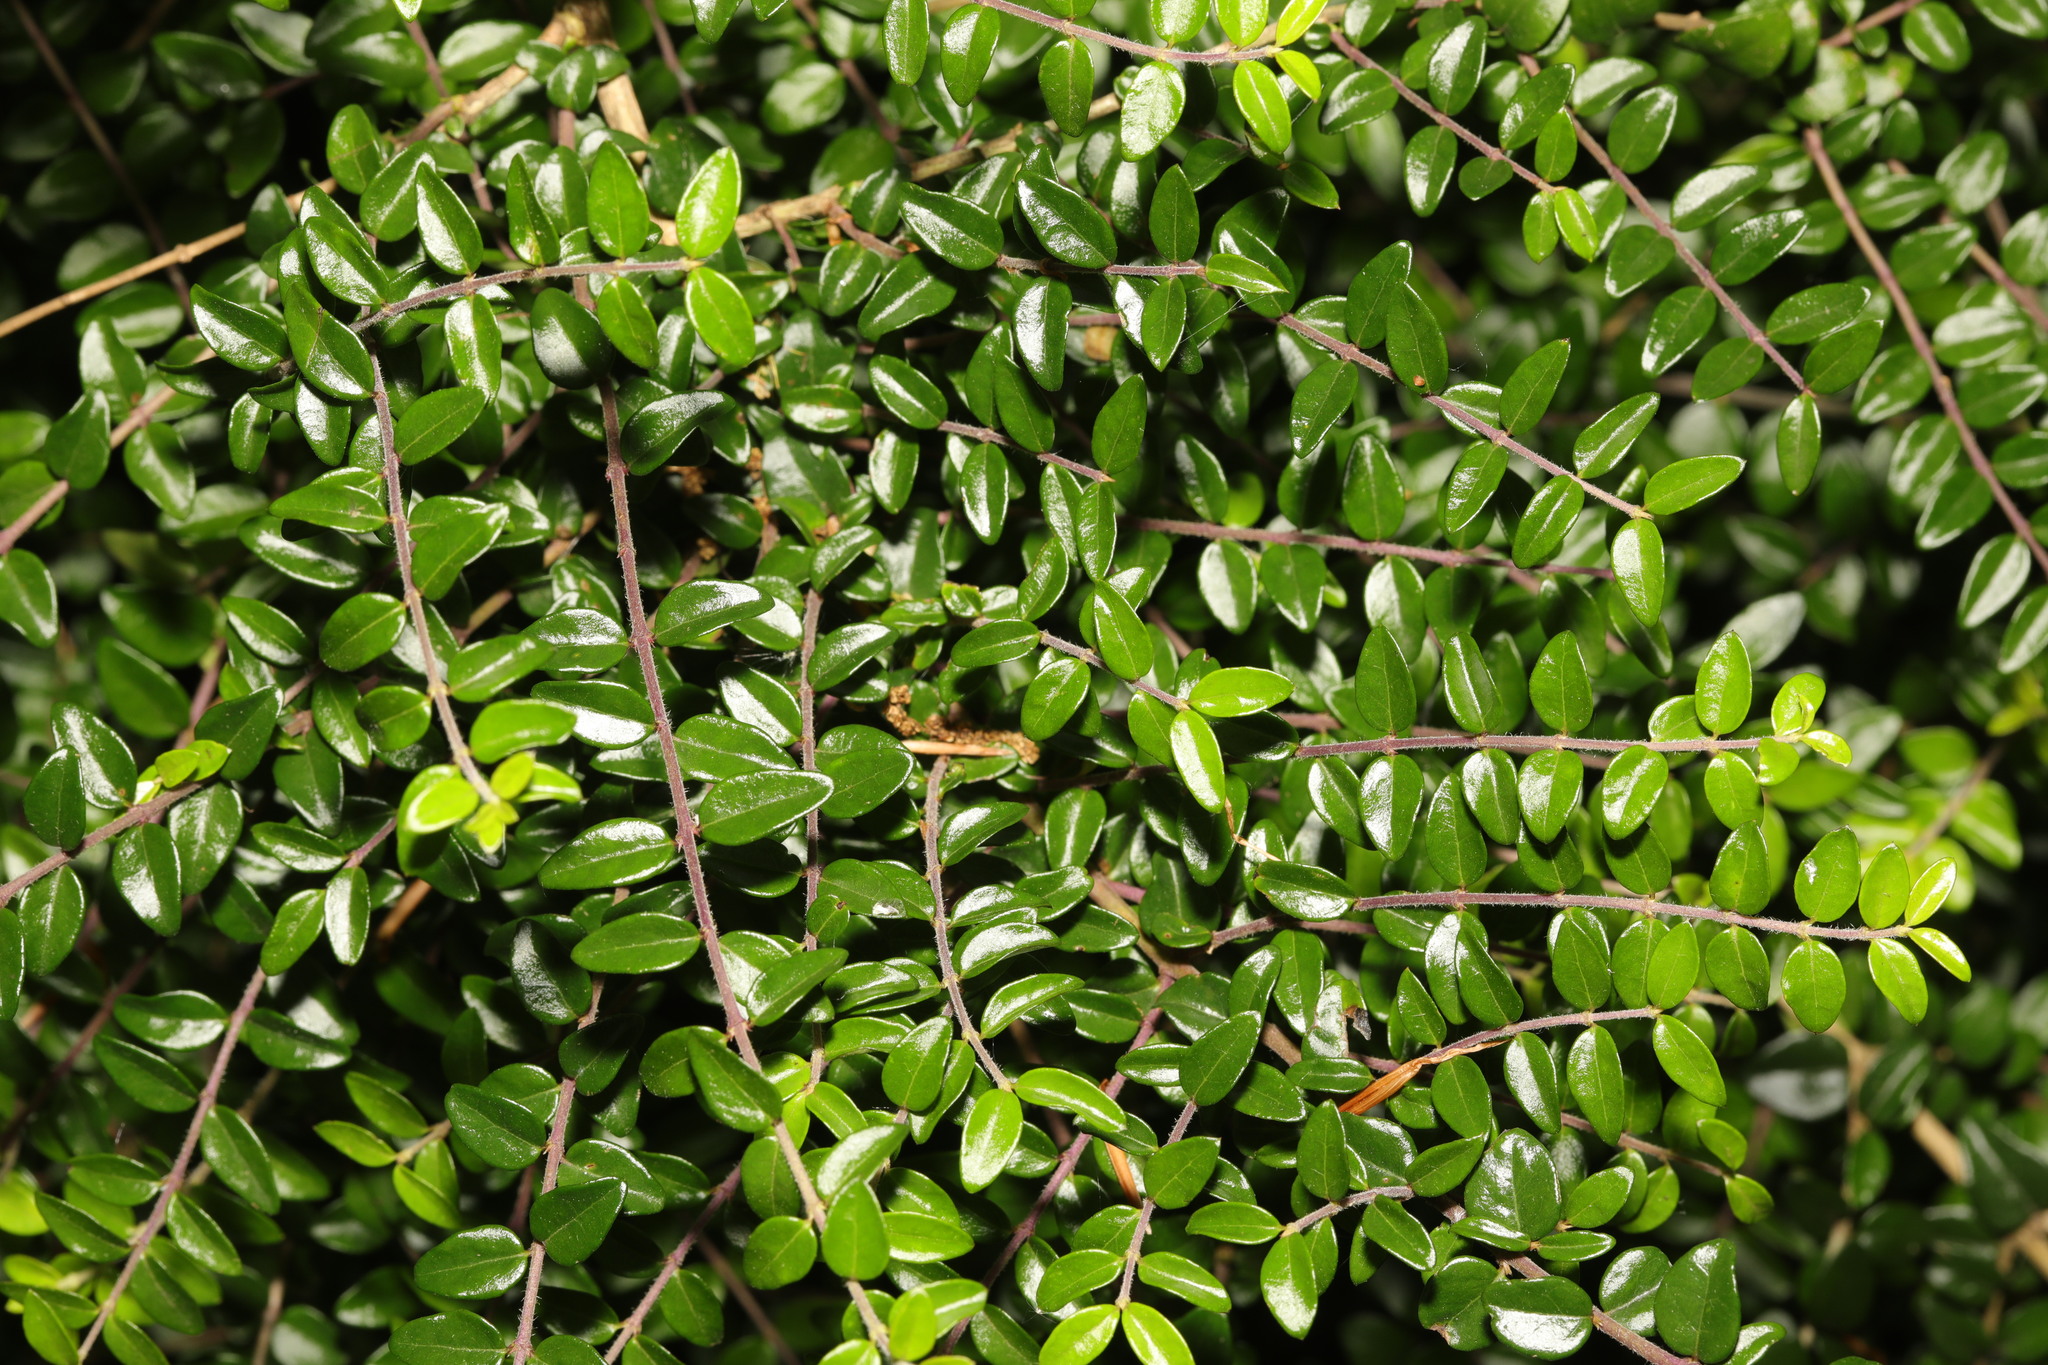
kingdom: Plantae
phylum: Tracheophyta
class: Magnoliopsida
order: Dipsacales
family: Caprifoliaceae
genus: Lonicera
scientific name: Lonicera pileata
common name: Box-leaved honeysuckle
